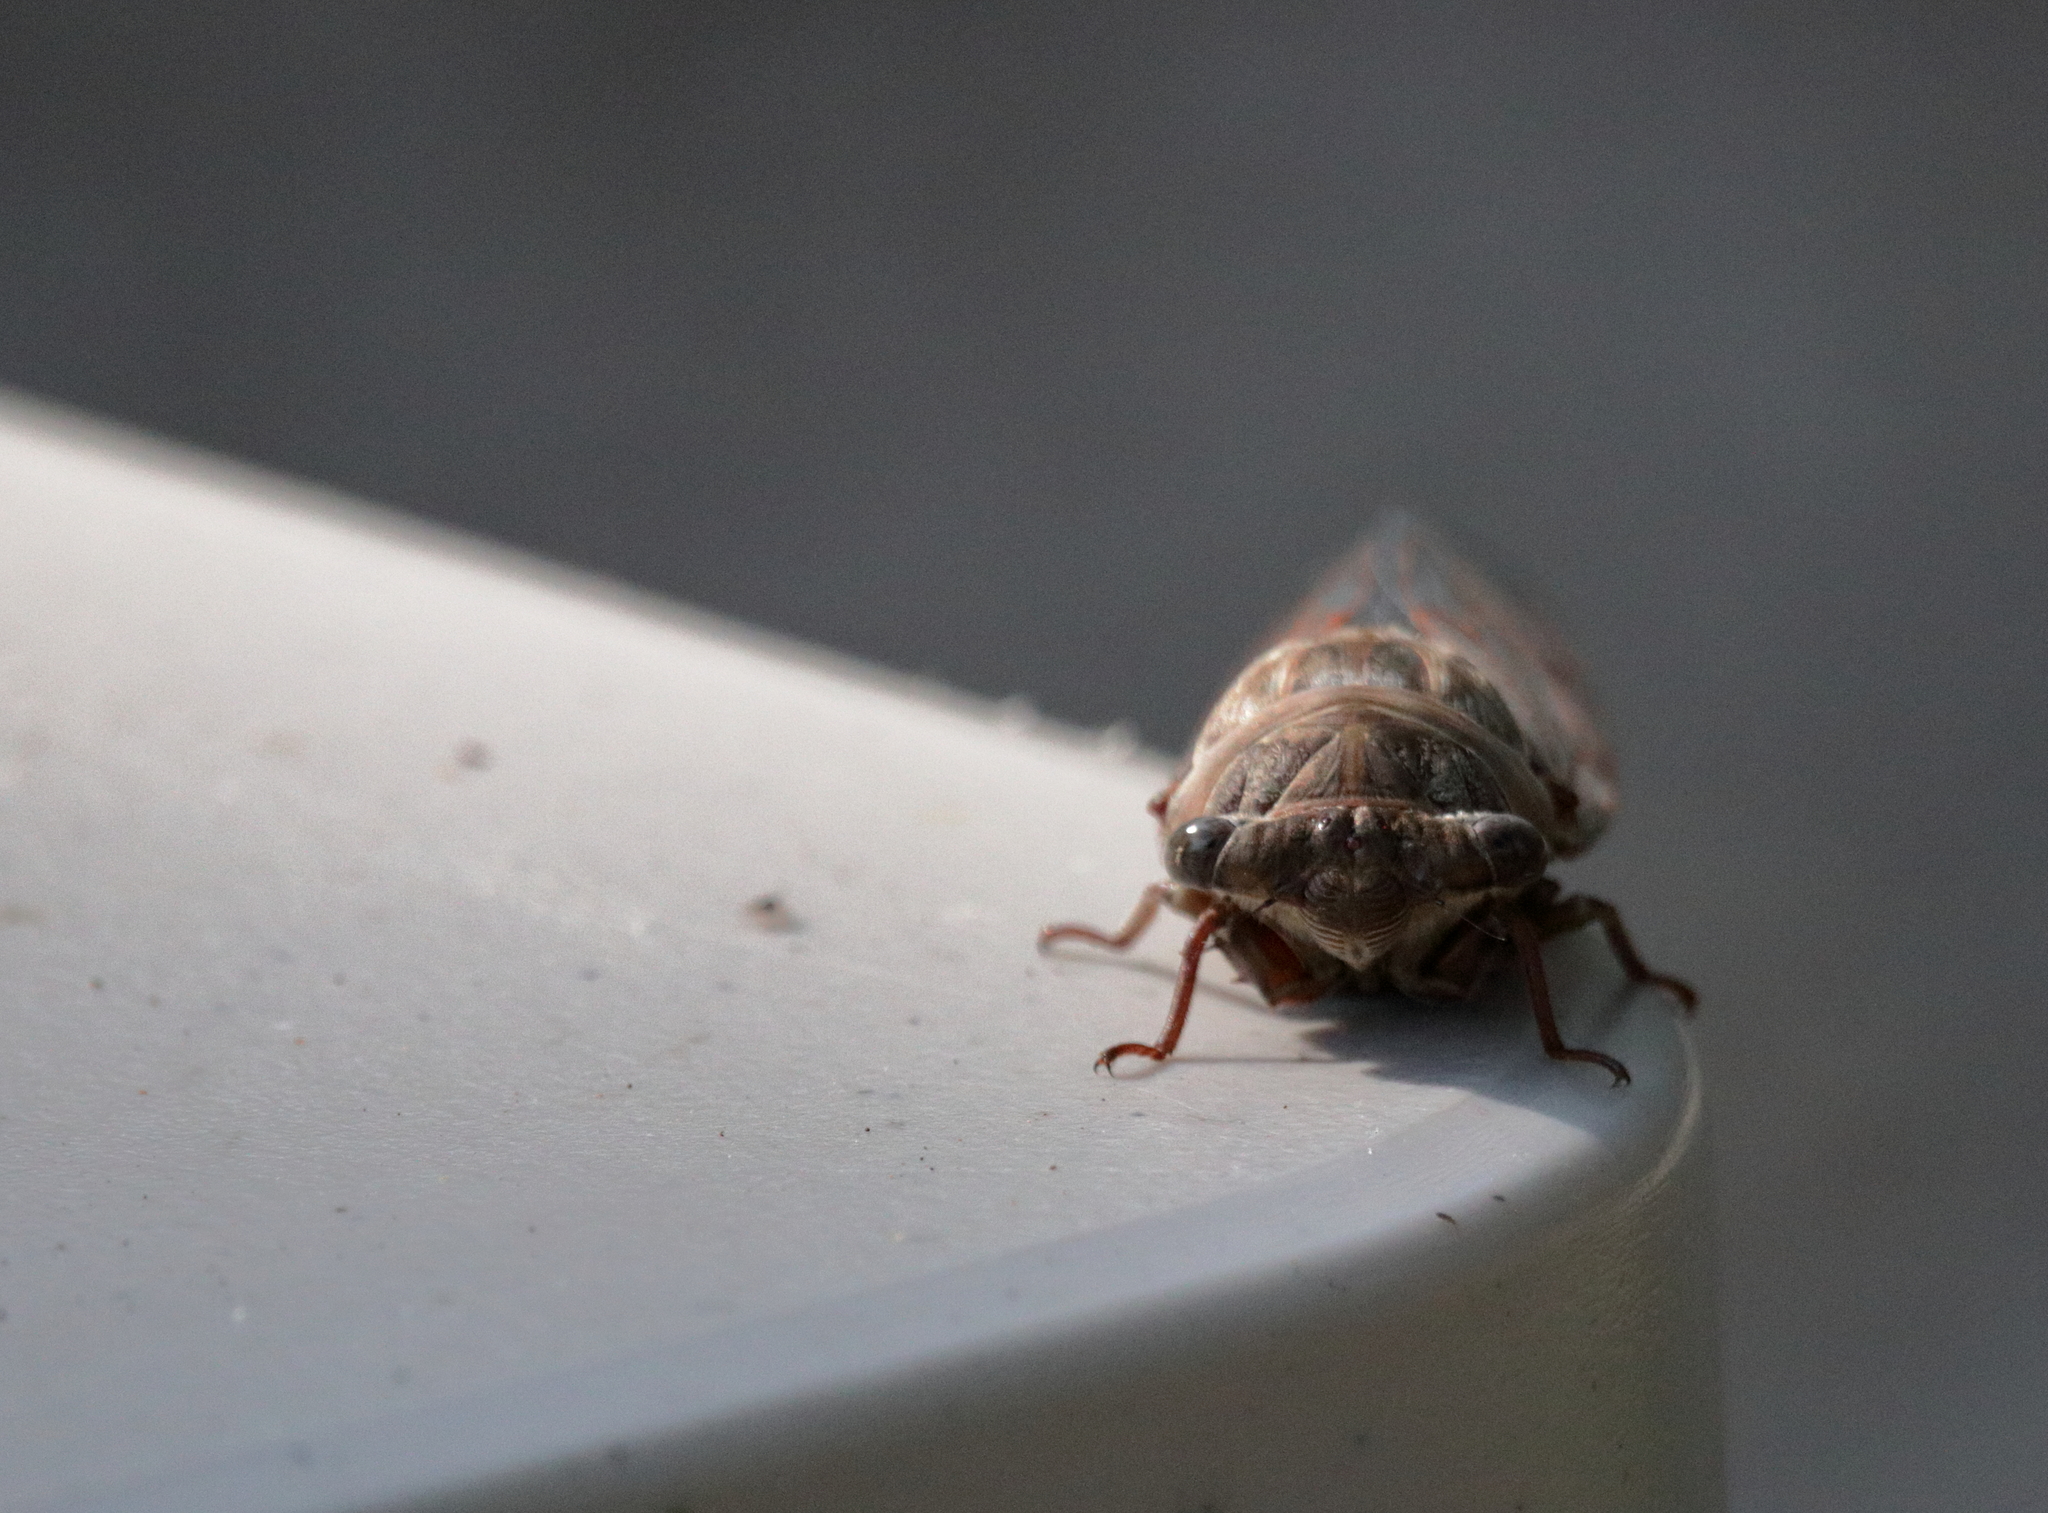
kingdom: Animalia
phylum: Arthropoda
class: Insecta
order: Hemiptera
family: Cicadidae
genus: Megatibicen
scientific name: Megatibicen resonans
